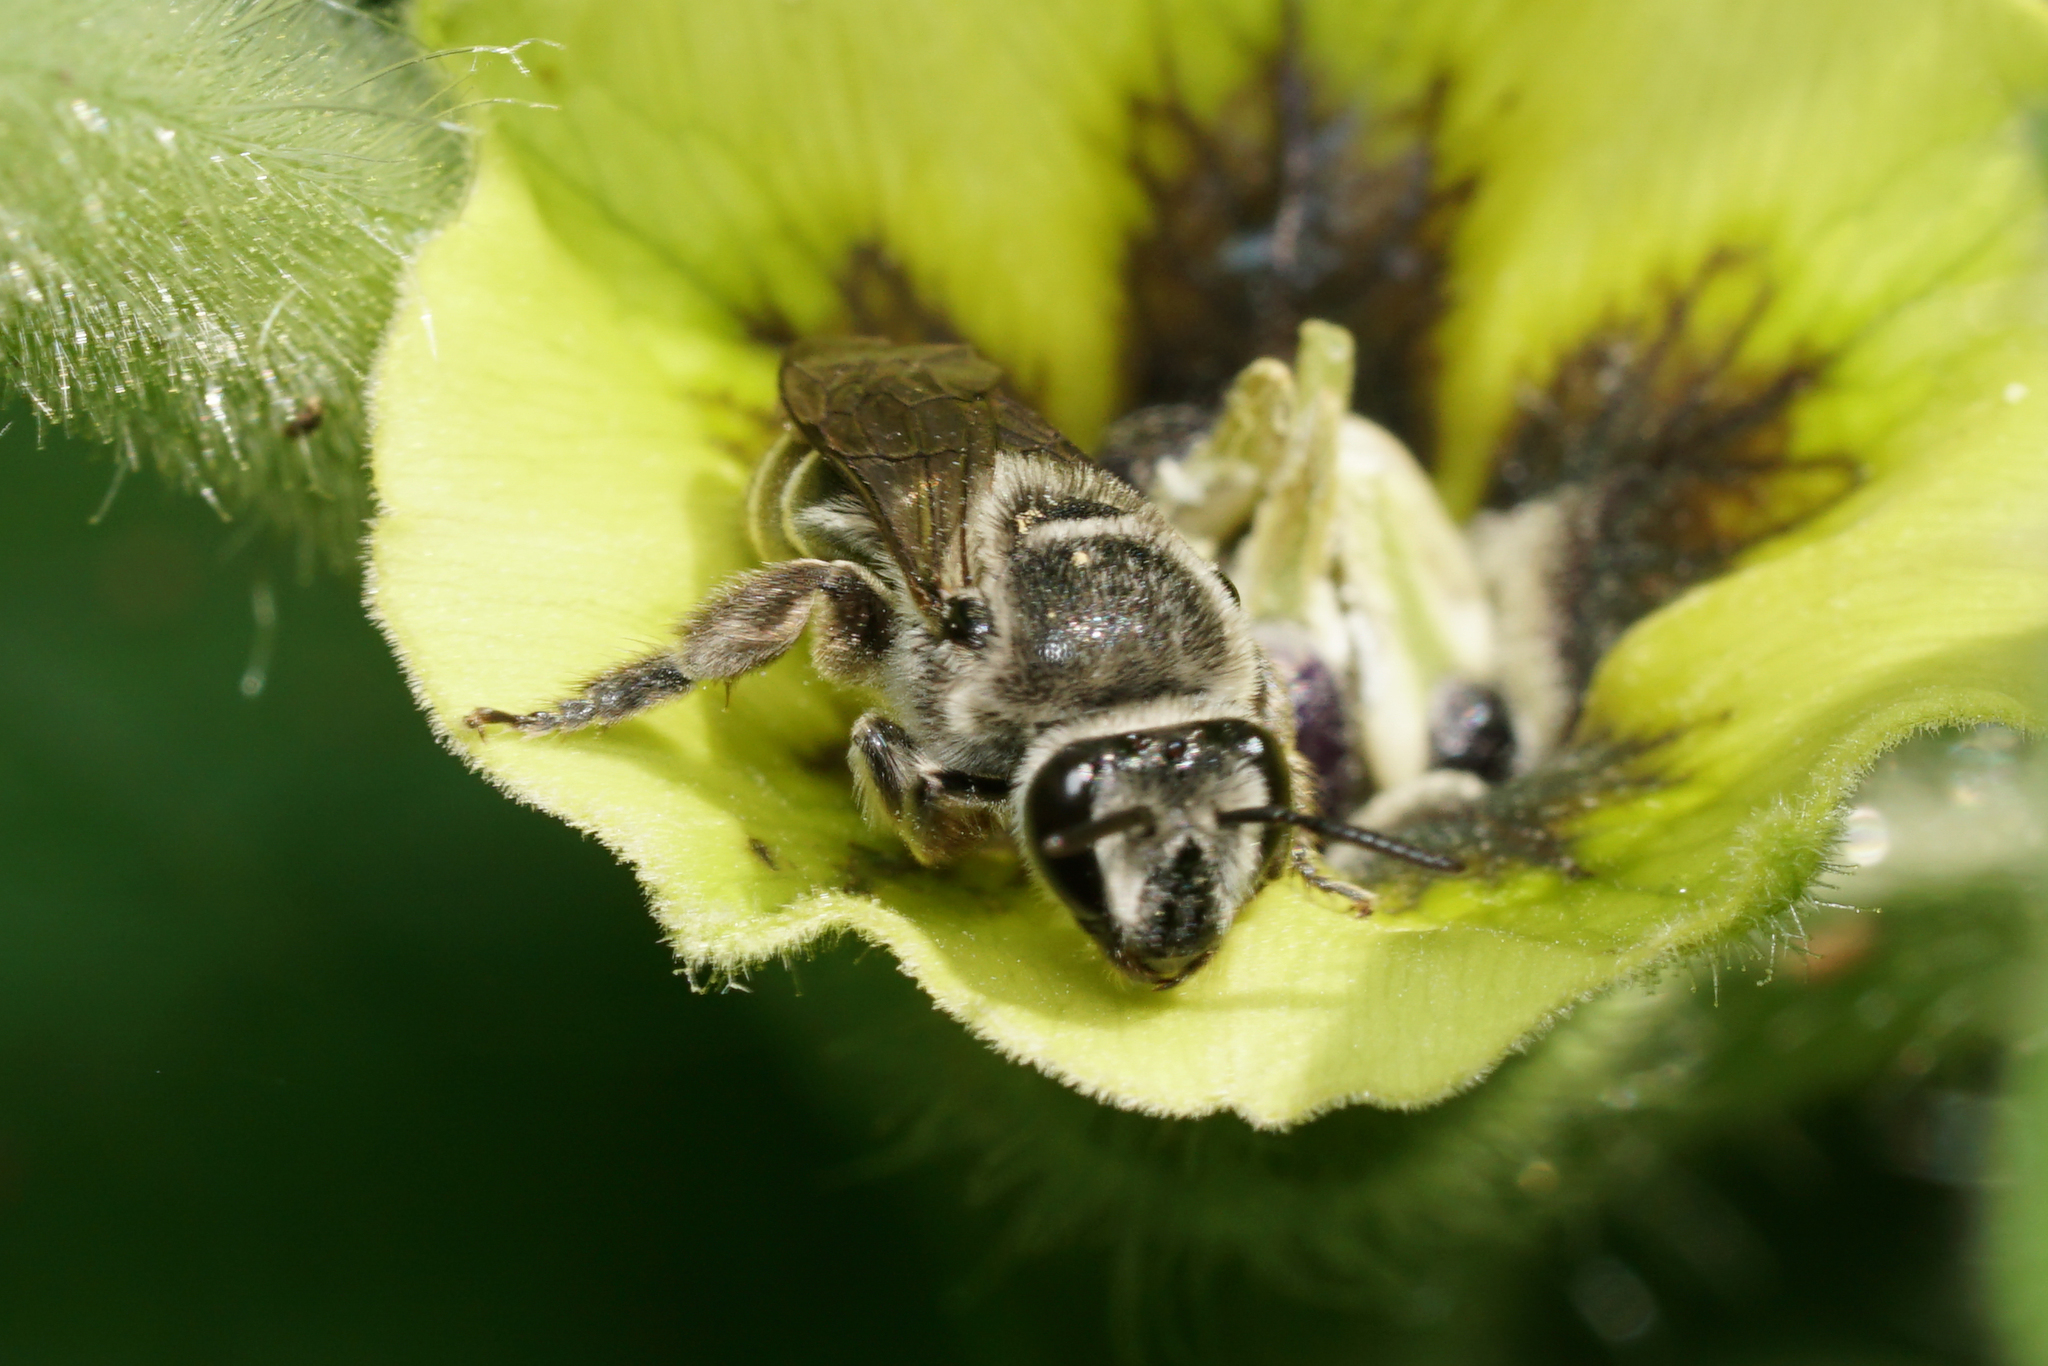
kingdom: Animalia
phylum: Arthropoda
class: Insecta
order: Hymenoptera
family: Colletidae
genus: Colletes
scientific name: Colletes latitarsis
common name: Broad-footed cellophane bee
